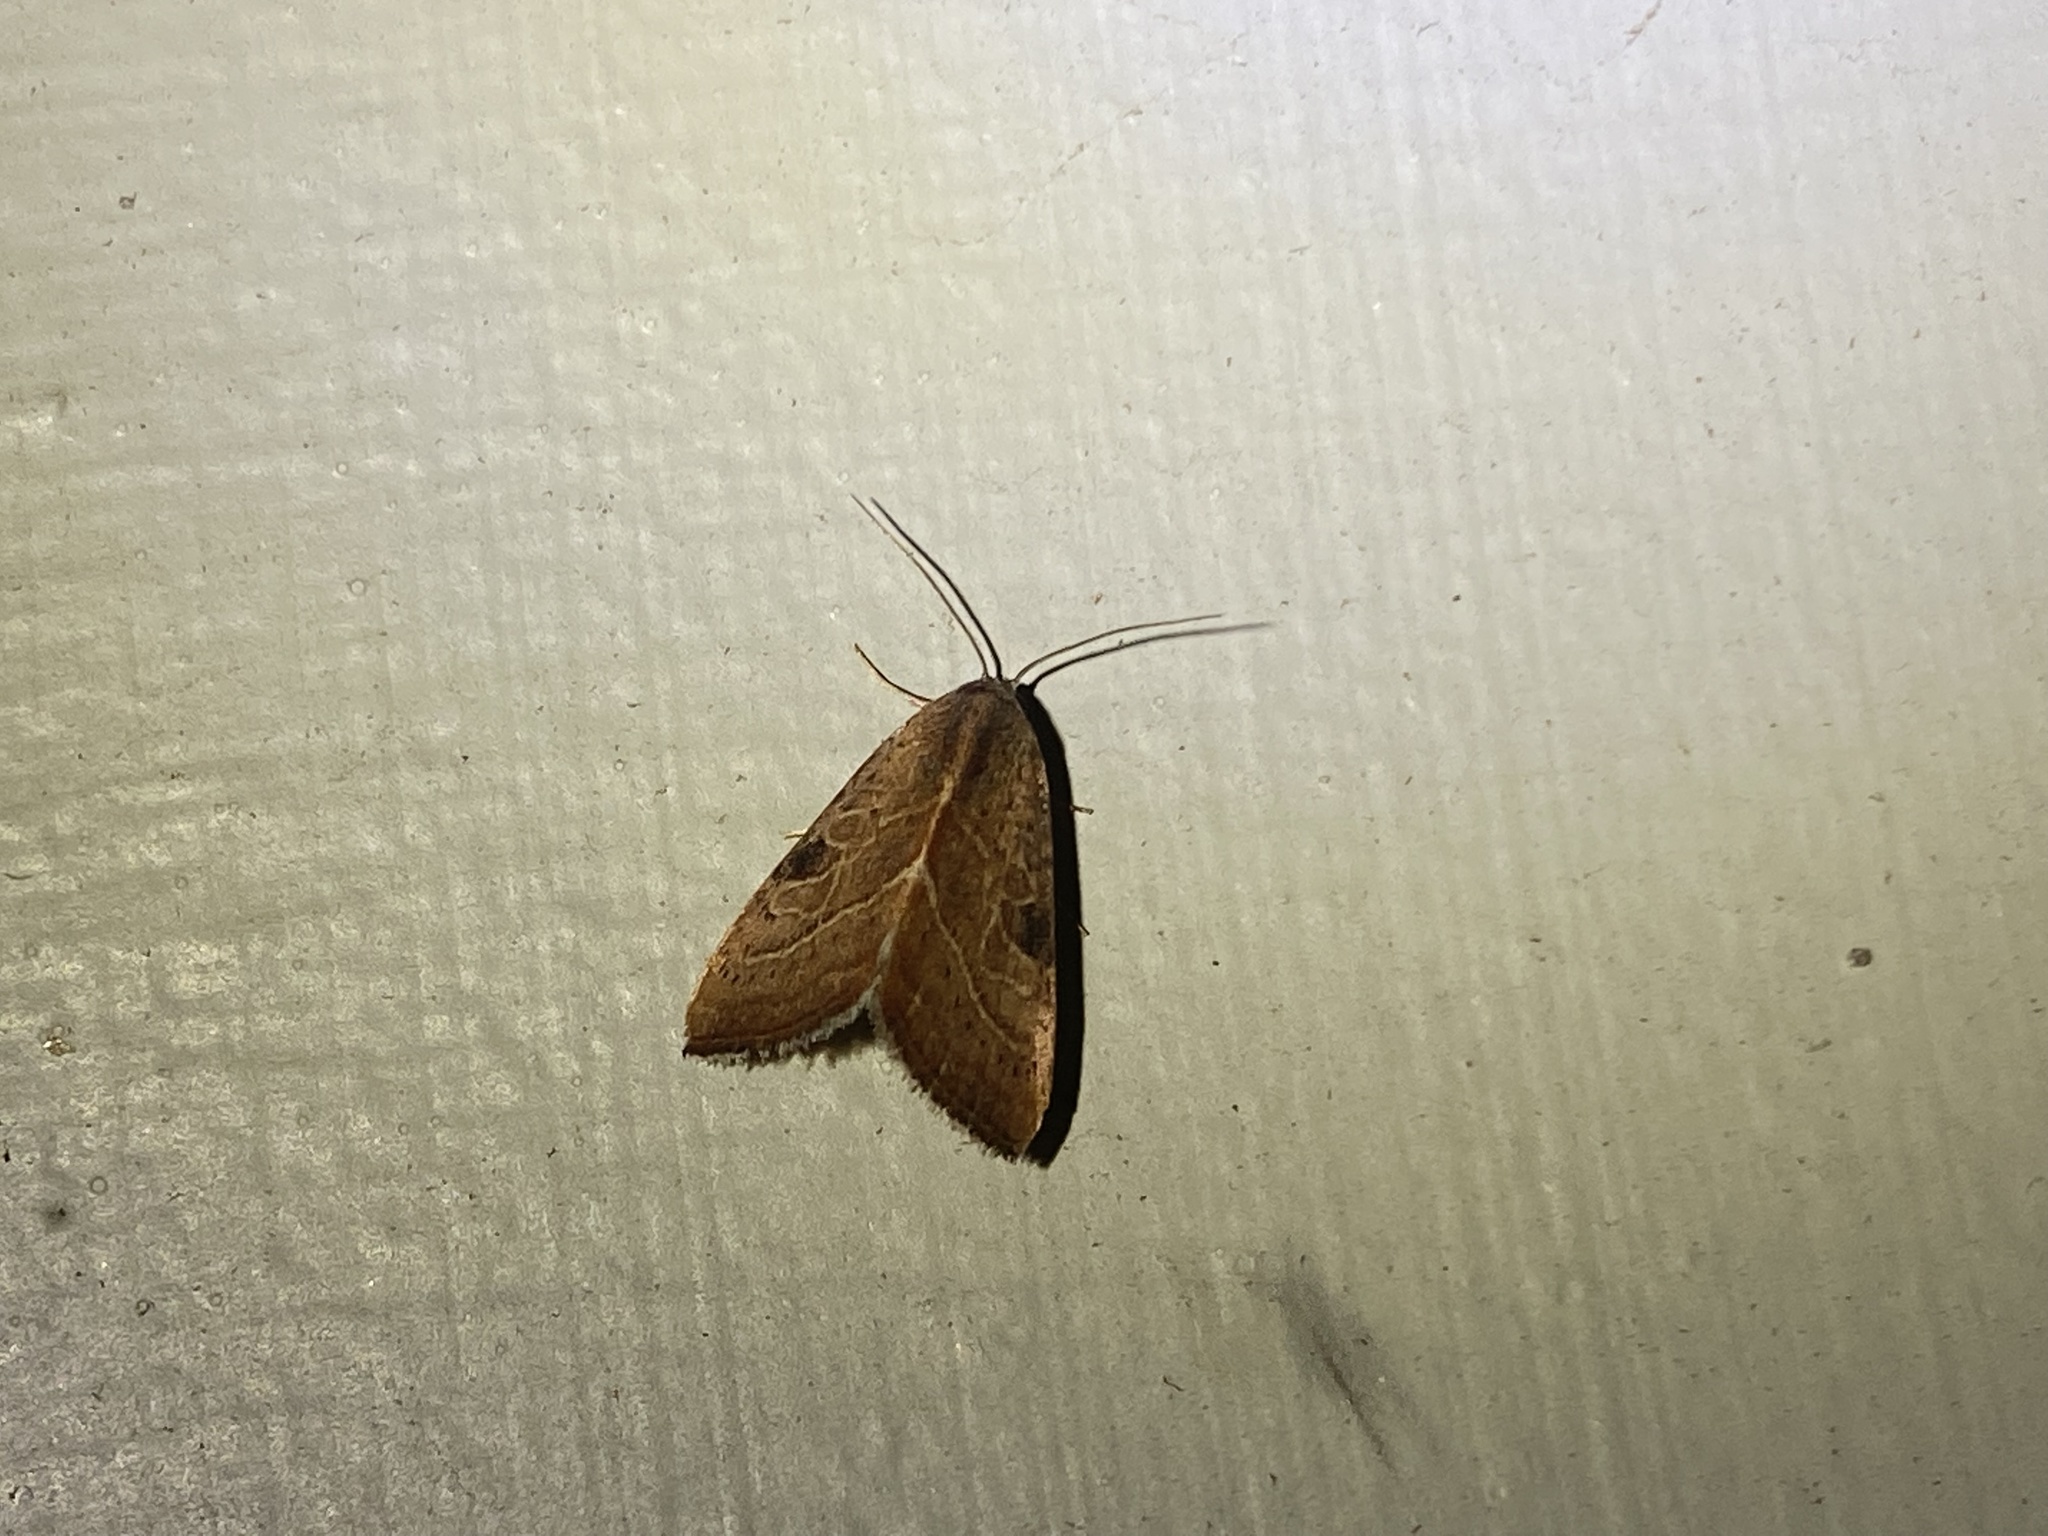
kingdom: Animalia
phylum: Arthropoda
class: Insecta
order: Lepidoptera
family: Noctuidae
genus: Galgula
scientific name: Galgula partita
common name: Wedgeling
